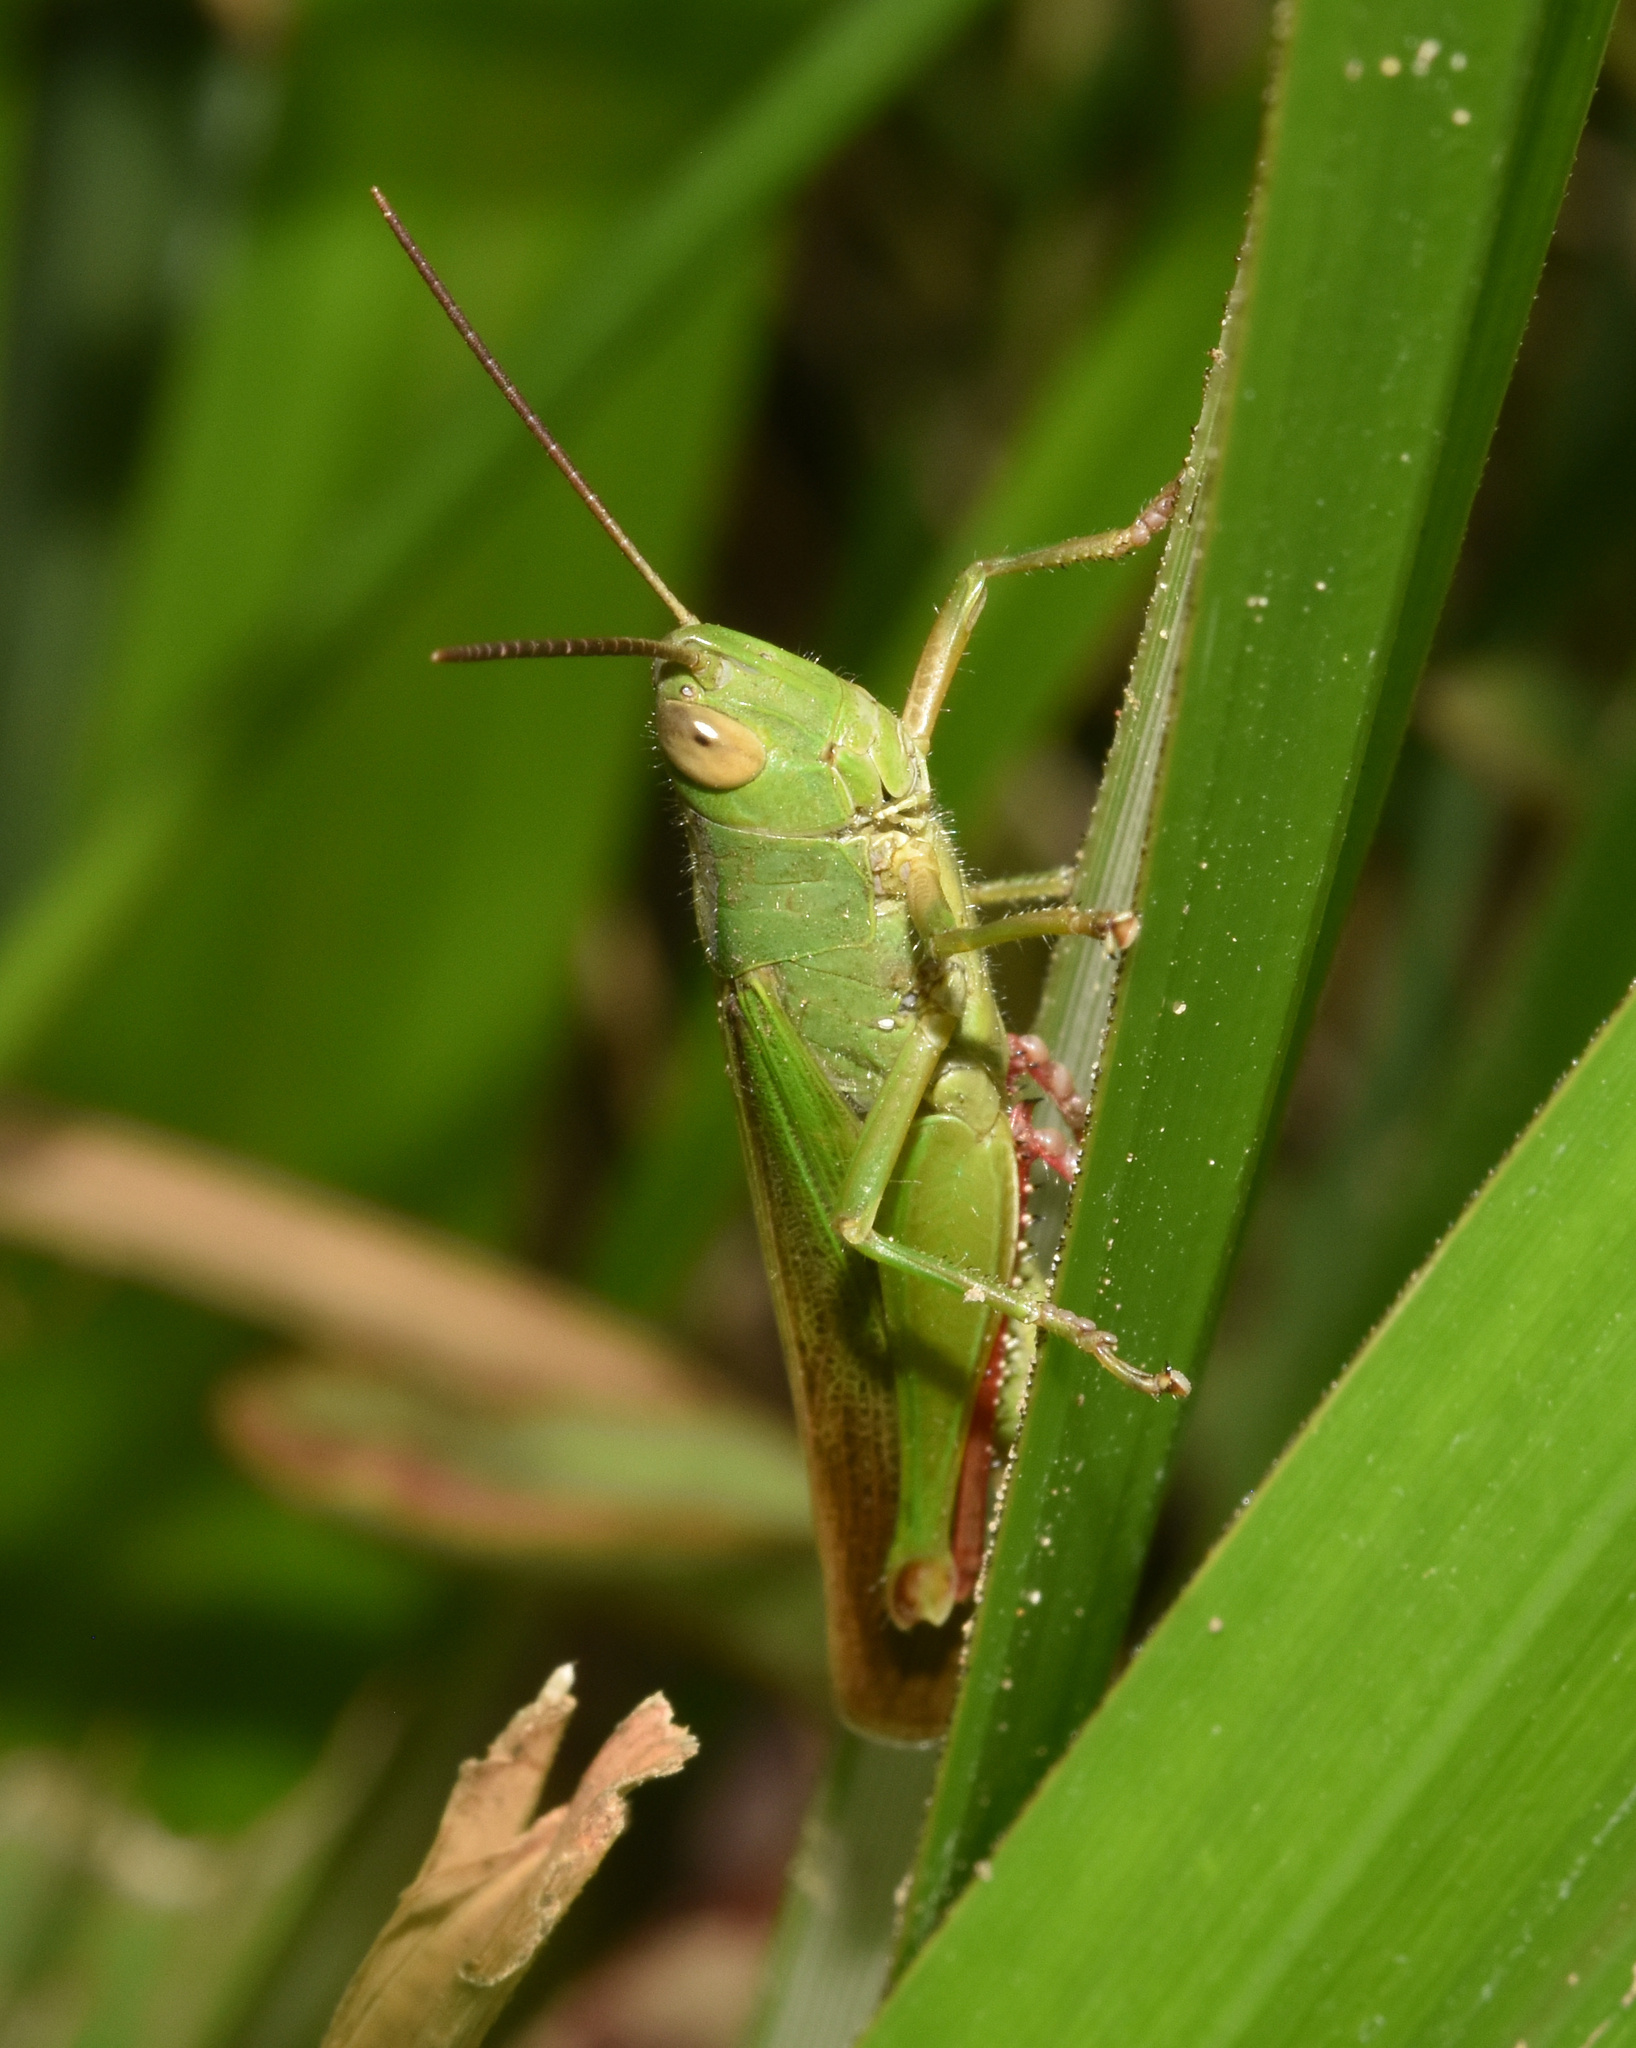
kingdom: Animalia
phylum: Arthropoda
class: Insecta
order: Orthoptera
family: Acrididae
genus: Paracinema
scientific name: Paracinema tricolor
